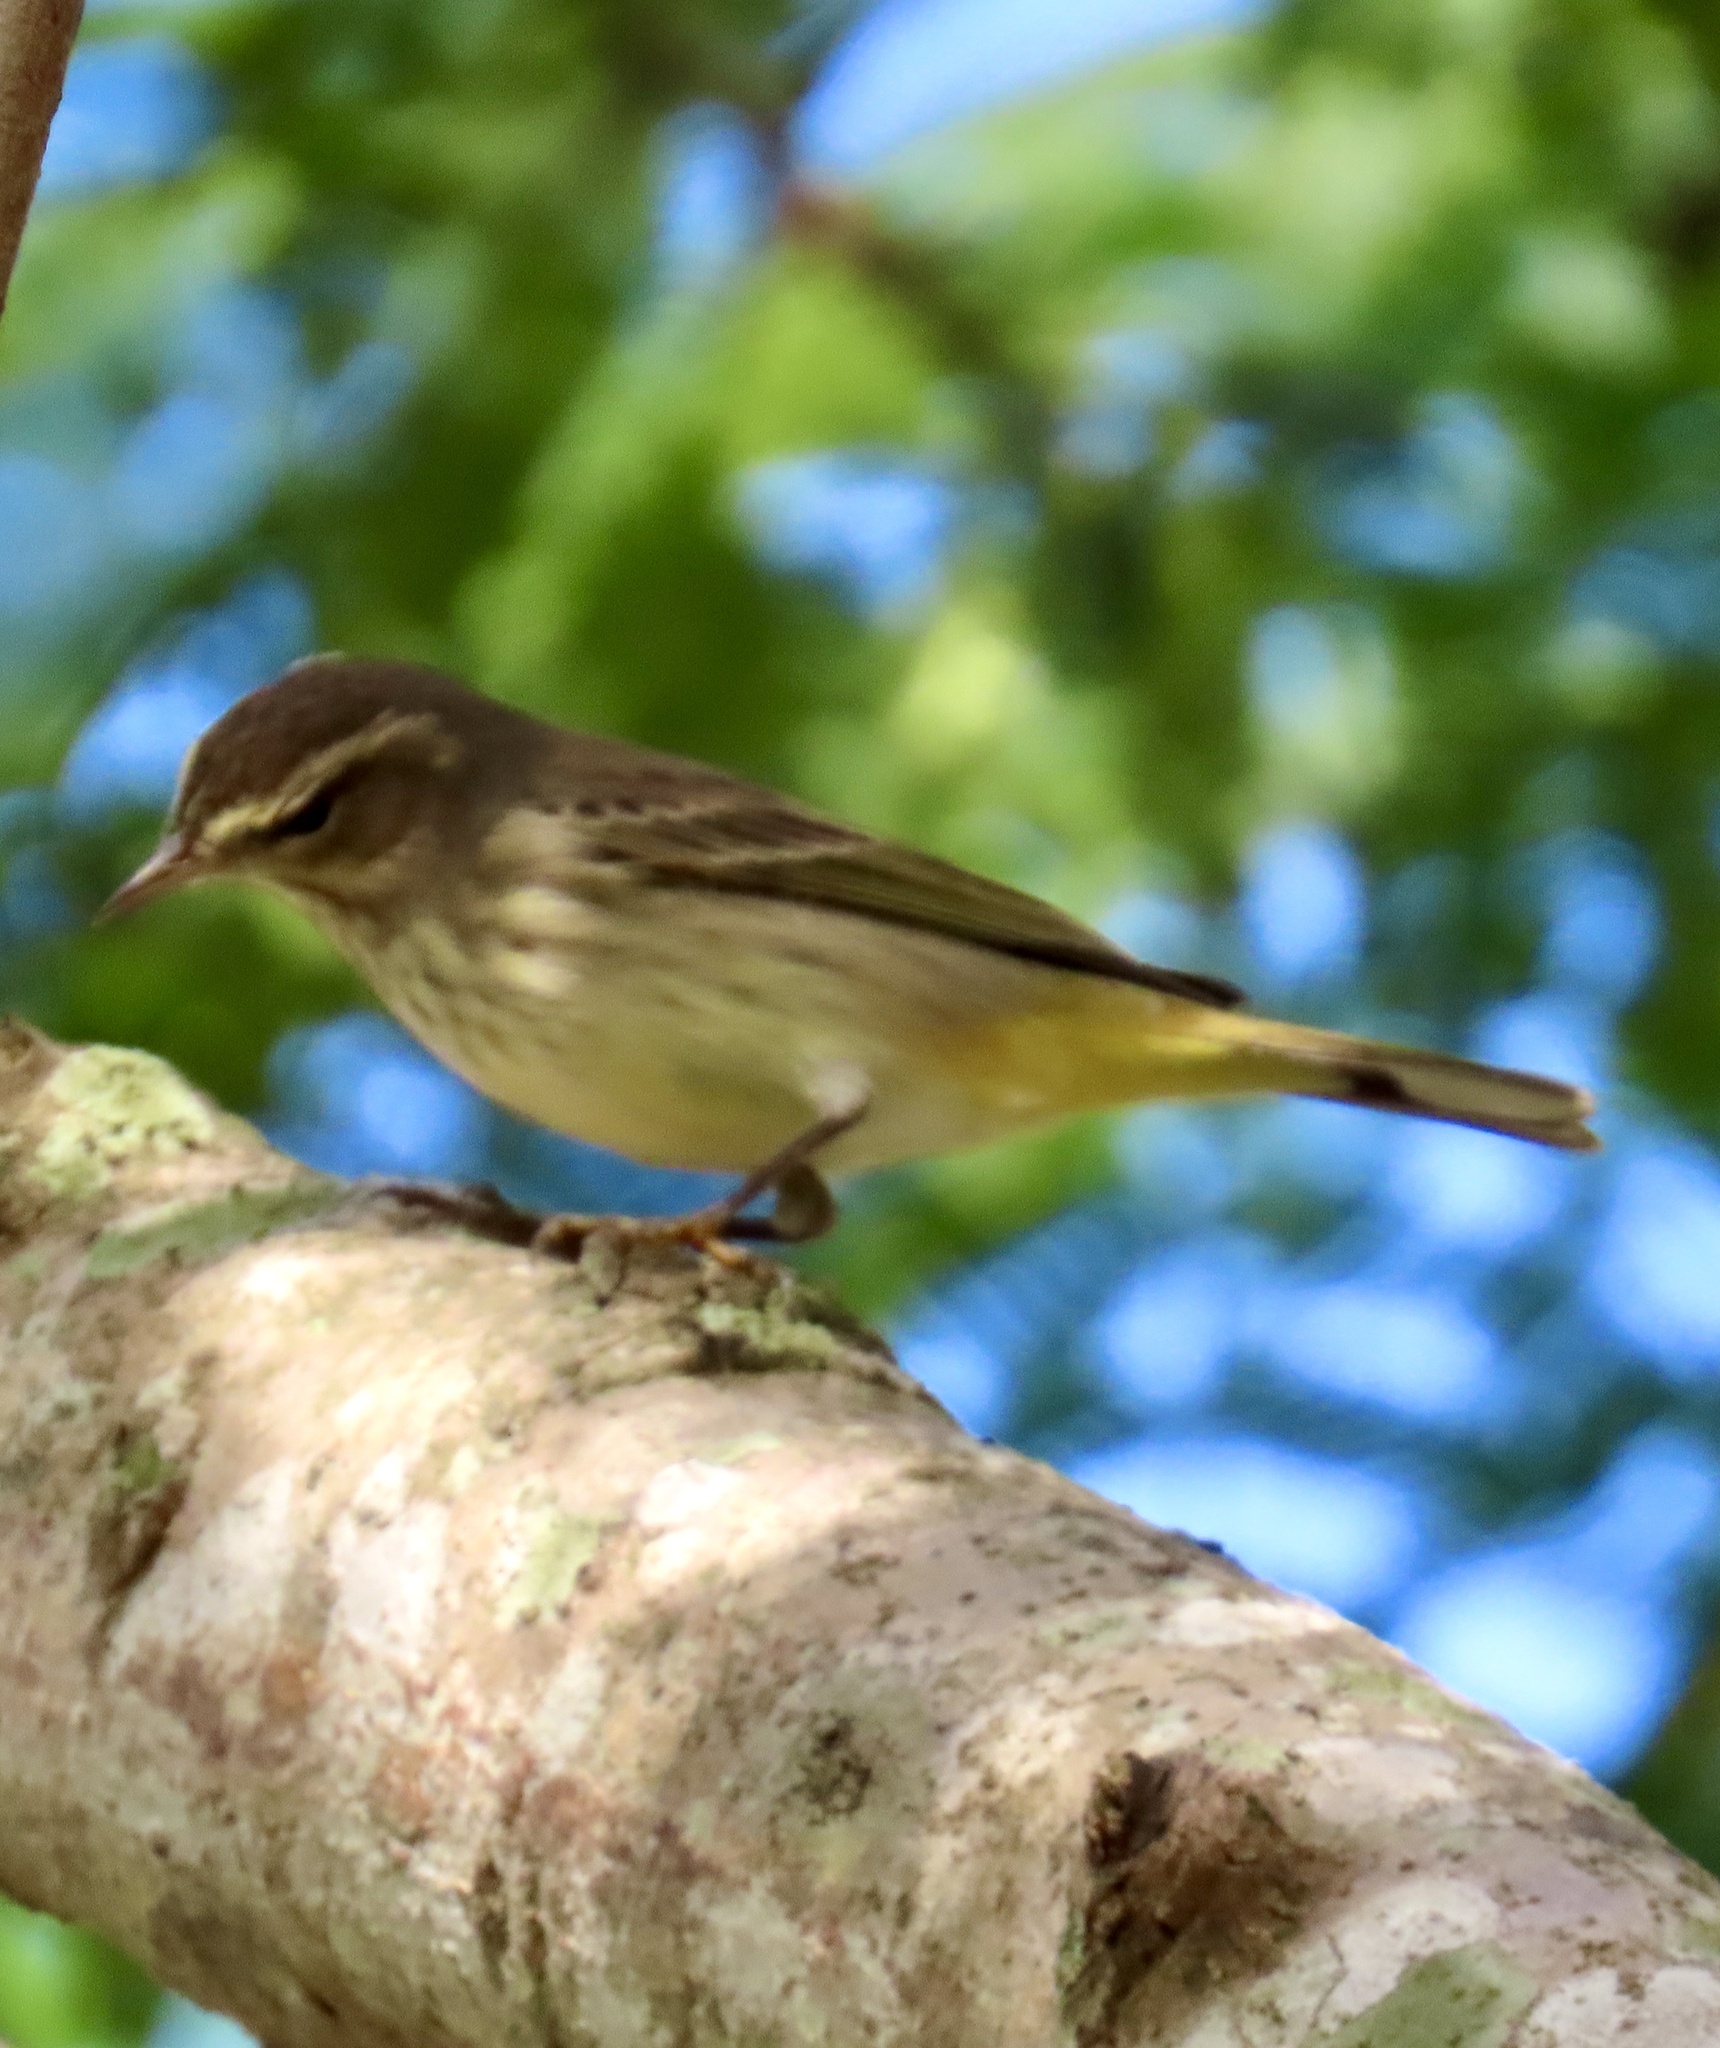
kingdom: Animalia
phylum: Chordata
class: Aves
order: Passeriformes
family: Parulidae
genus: Setophaga
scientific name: Setophaga palmarum
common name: Palm warbler
